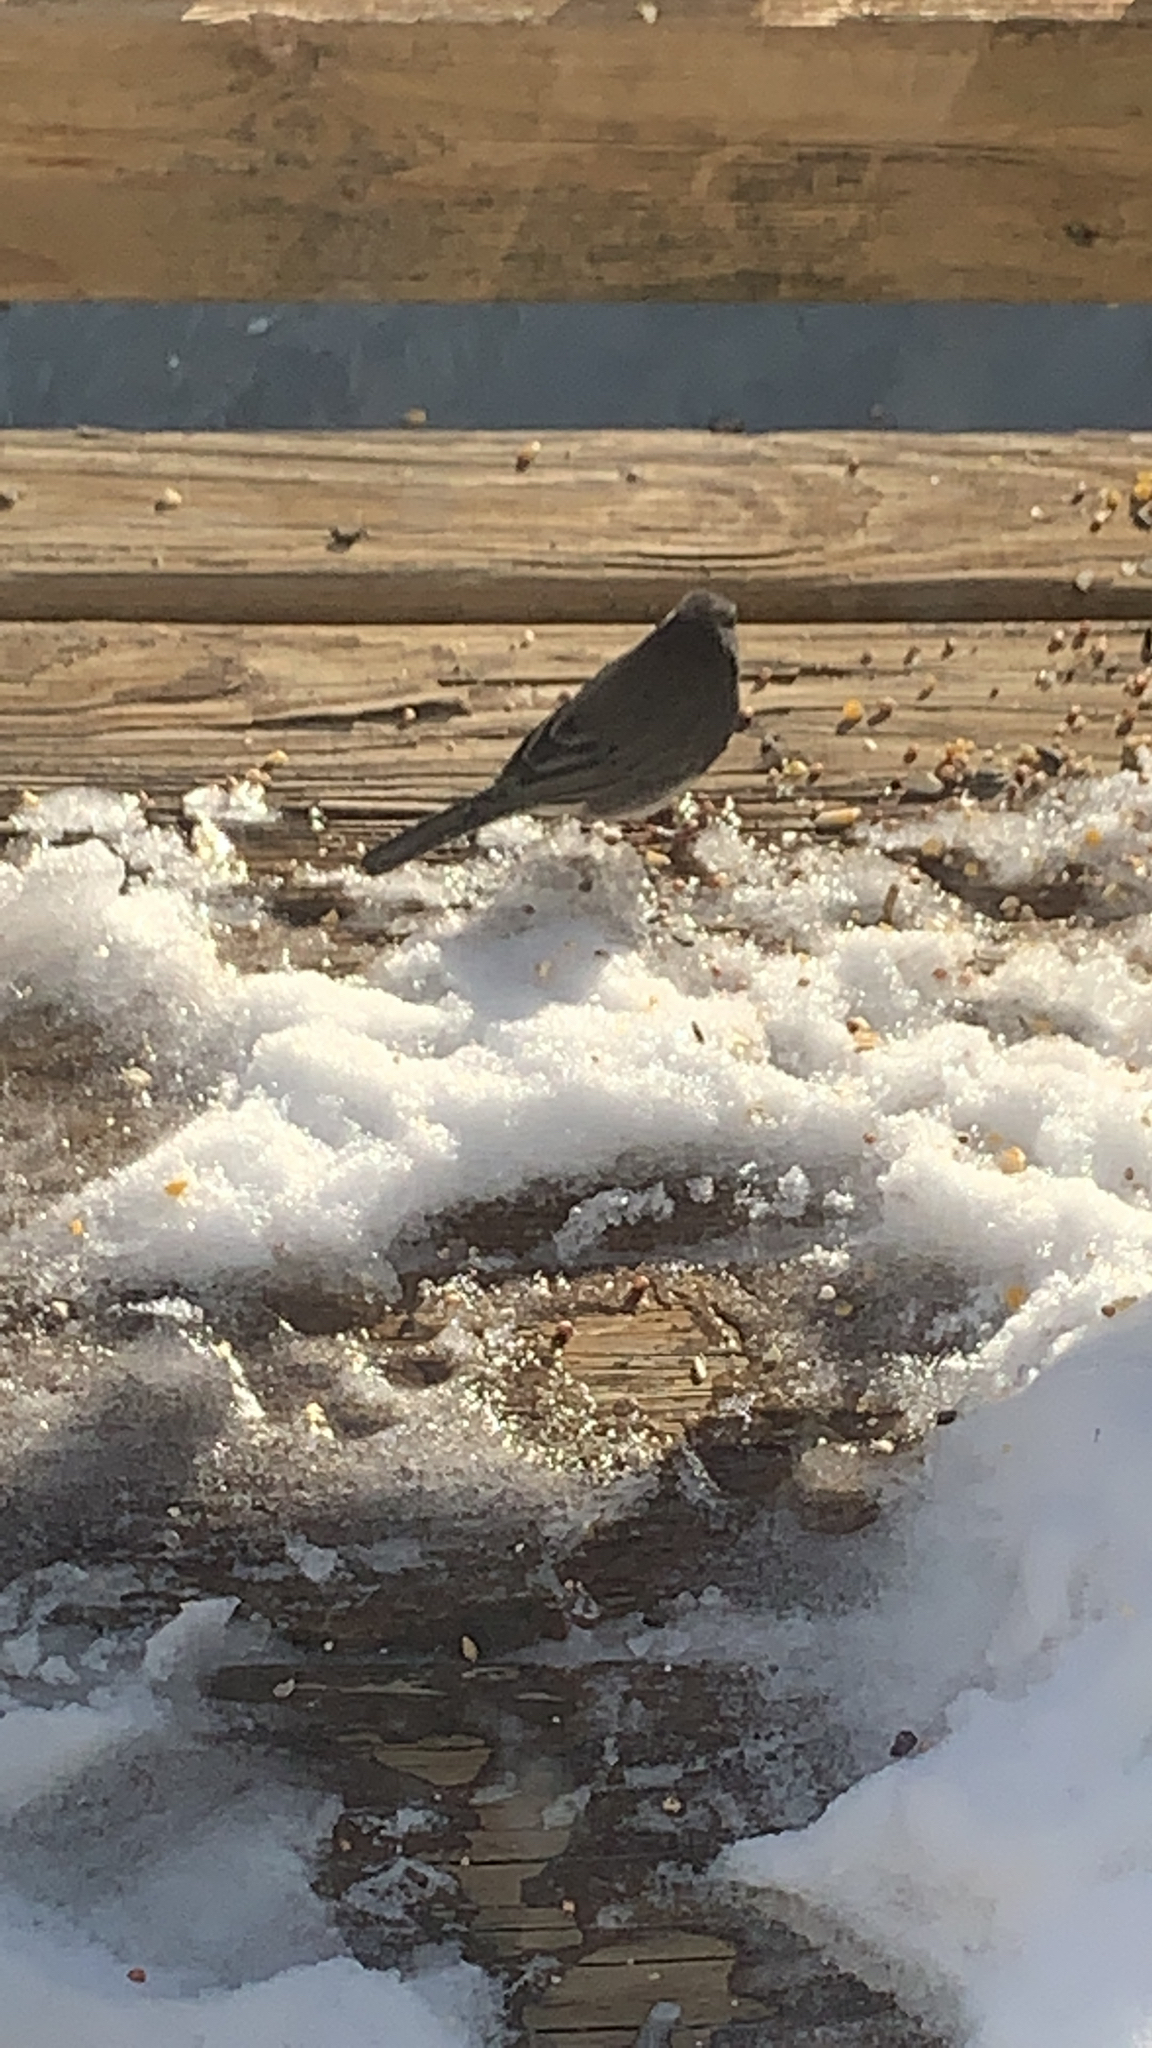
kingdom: Animalia
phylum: Chordata
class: Aves
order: Passeriformes
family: Passerellidae
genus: Junco
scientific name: Junco hyemalis
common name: Dark-eyed junco
